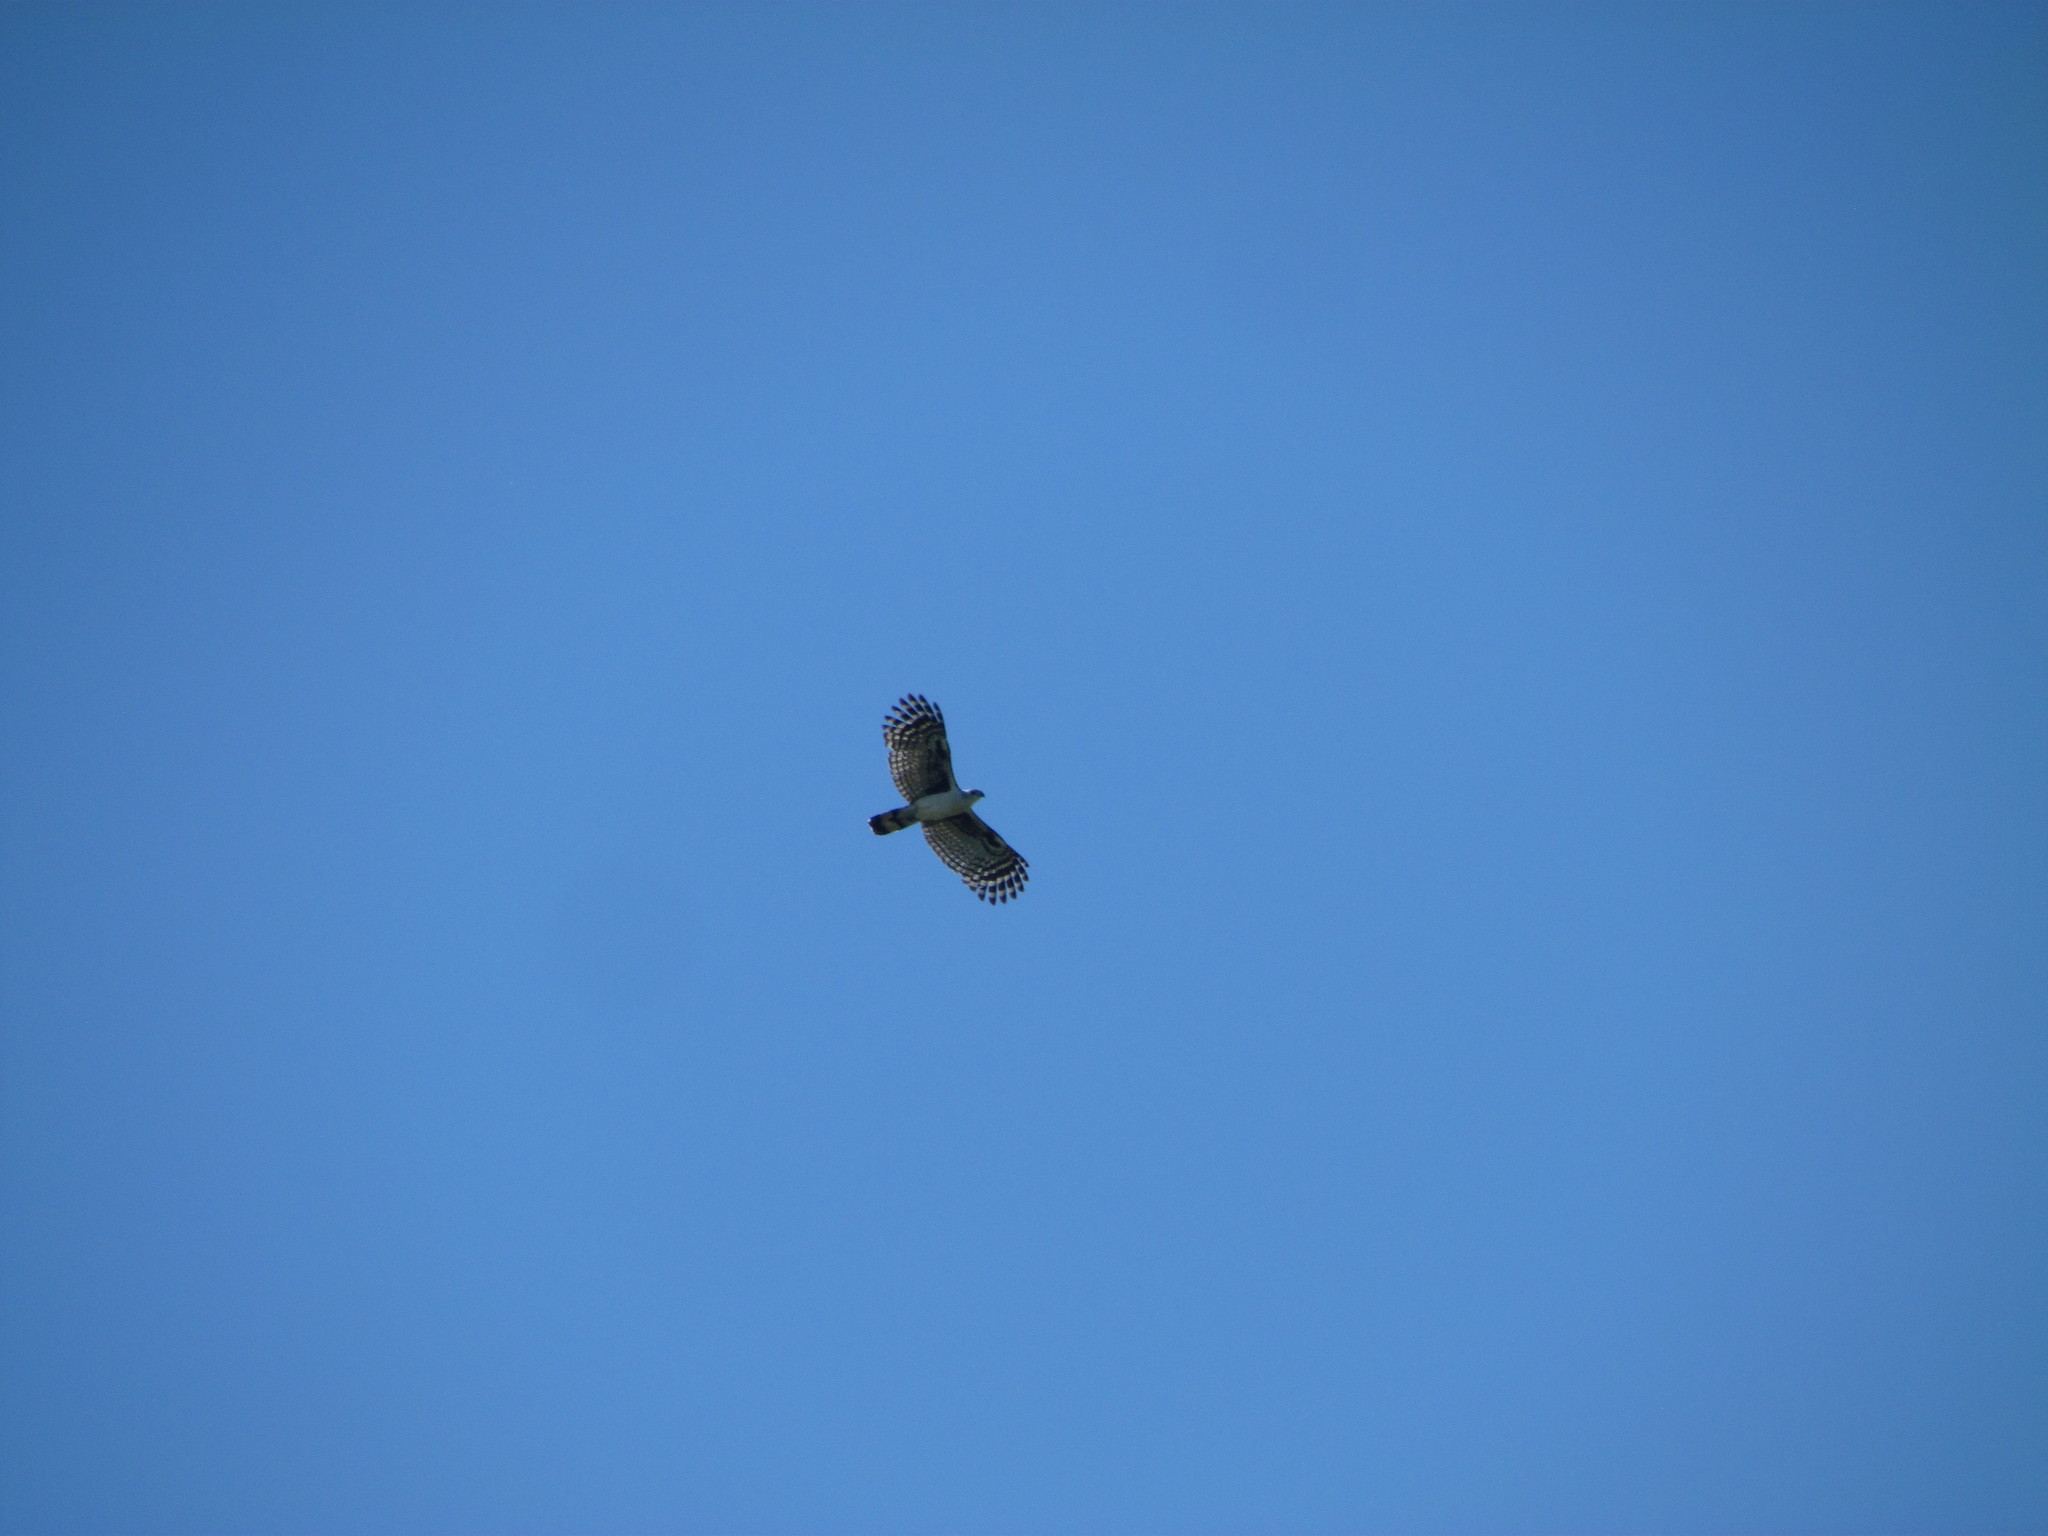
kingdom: Animalia
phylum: Chordata
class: Aves
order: Accipitriformes
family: Accipitridae
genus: Leptodon
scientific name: Leptodon cayanensis
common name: Gray-headed kite
